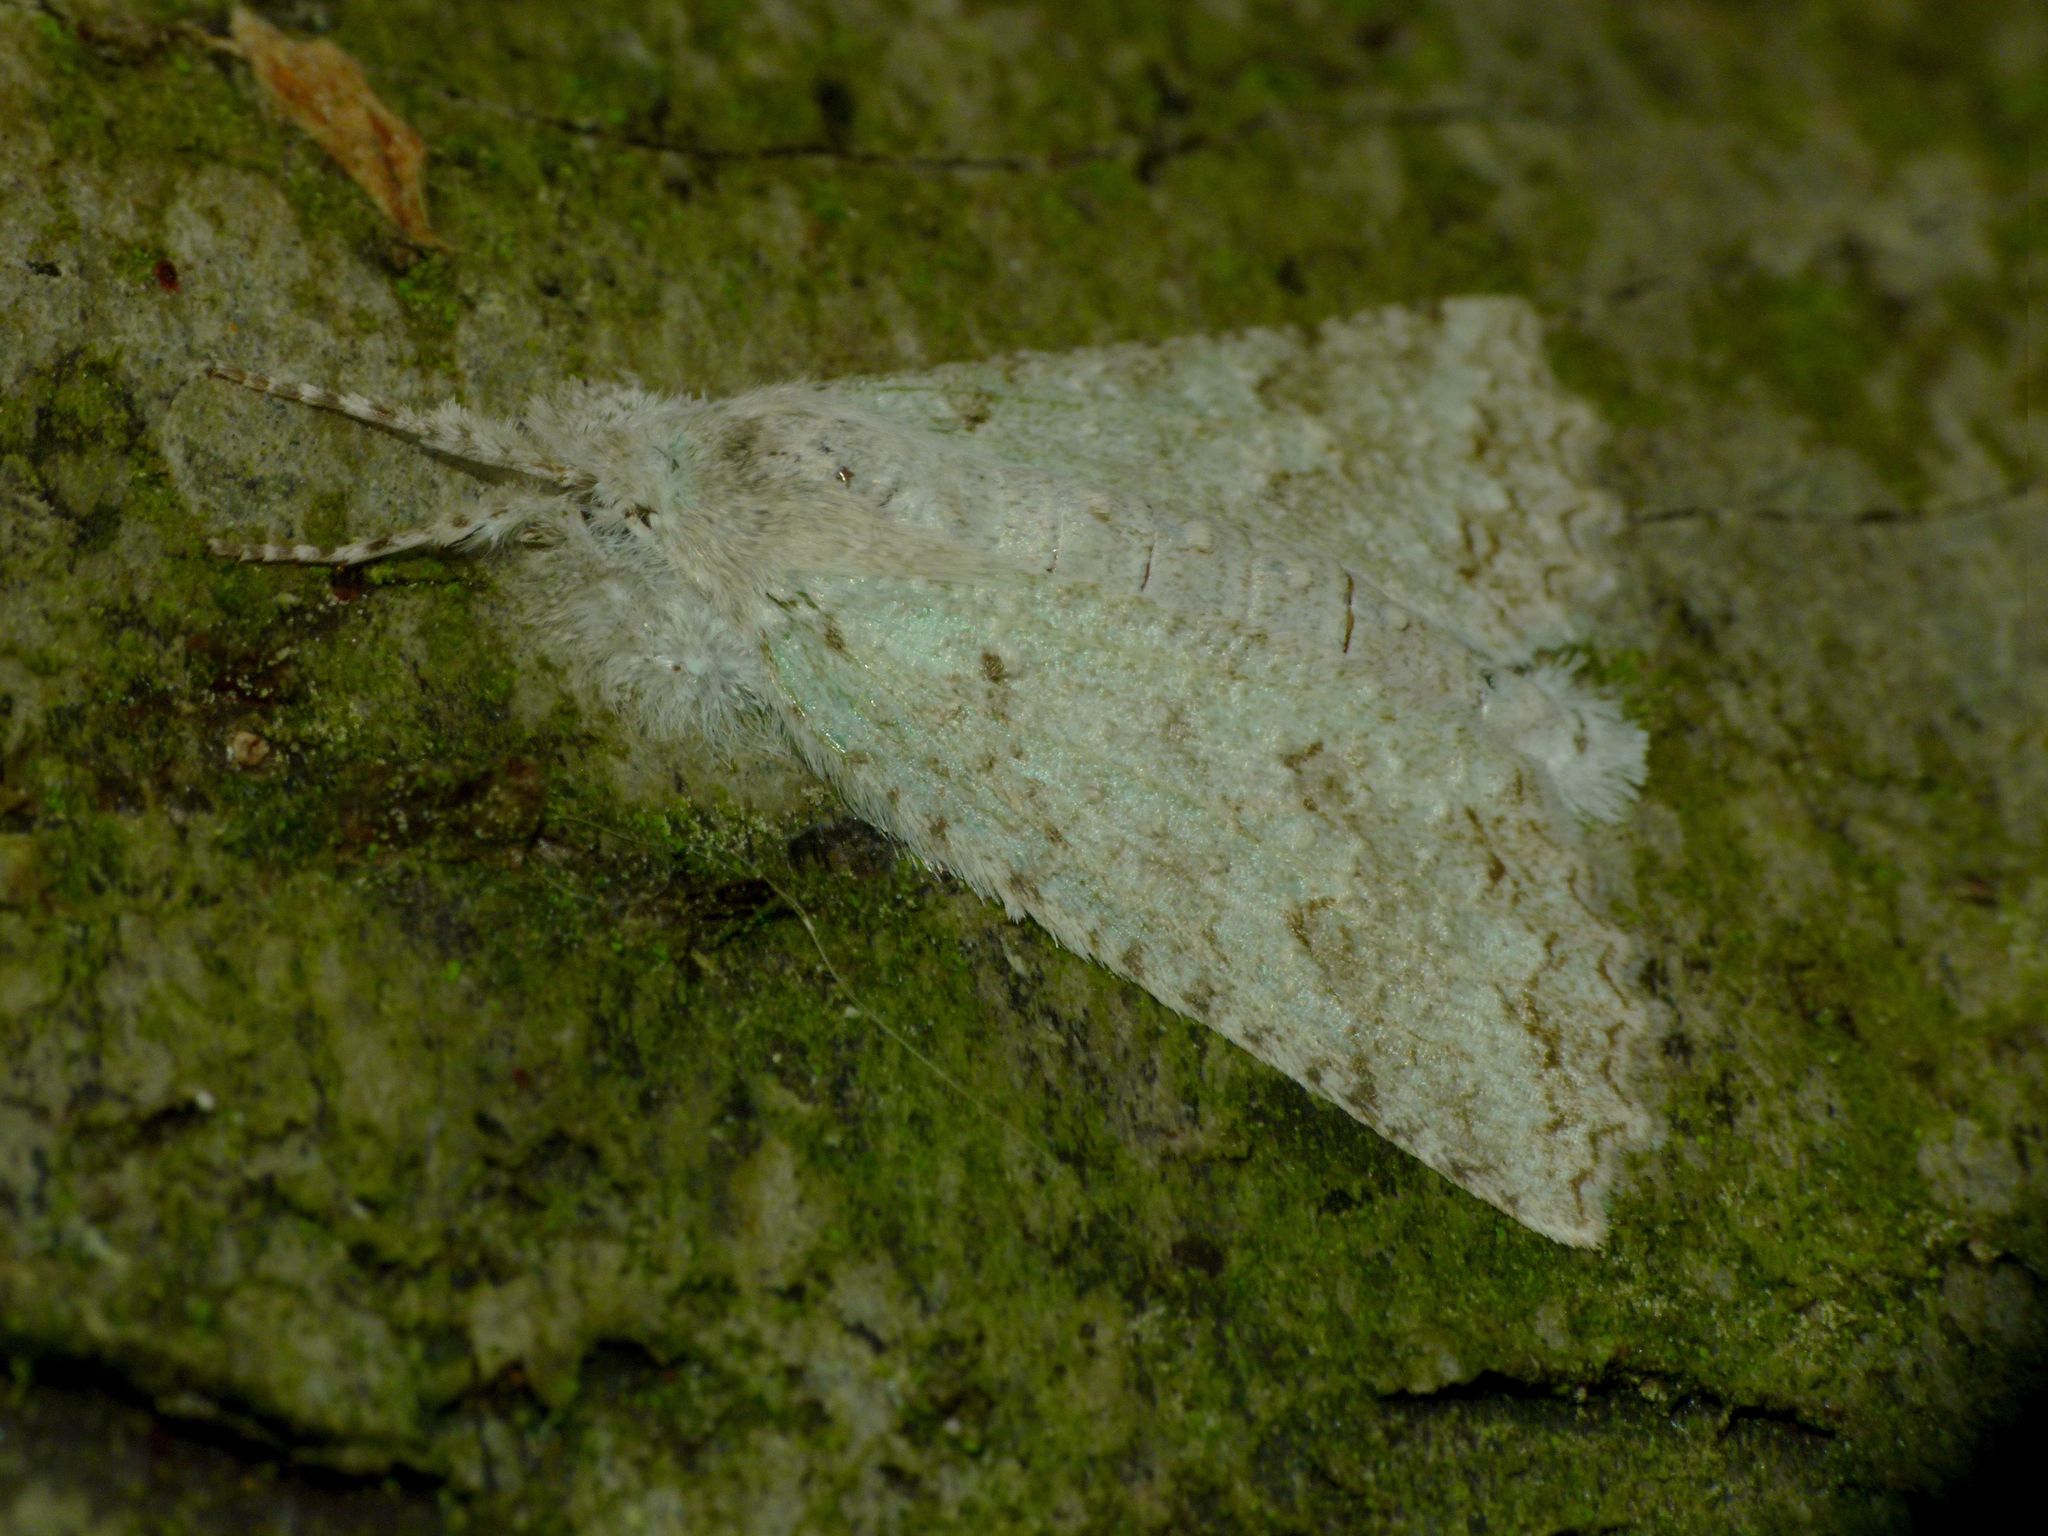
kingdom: Animalia
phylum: Arthropoda
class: Insecta
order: Lepidoptera
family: Geometridae
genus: Declana
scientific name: Declana niveata
